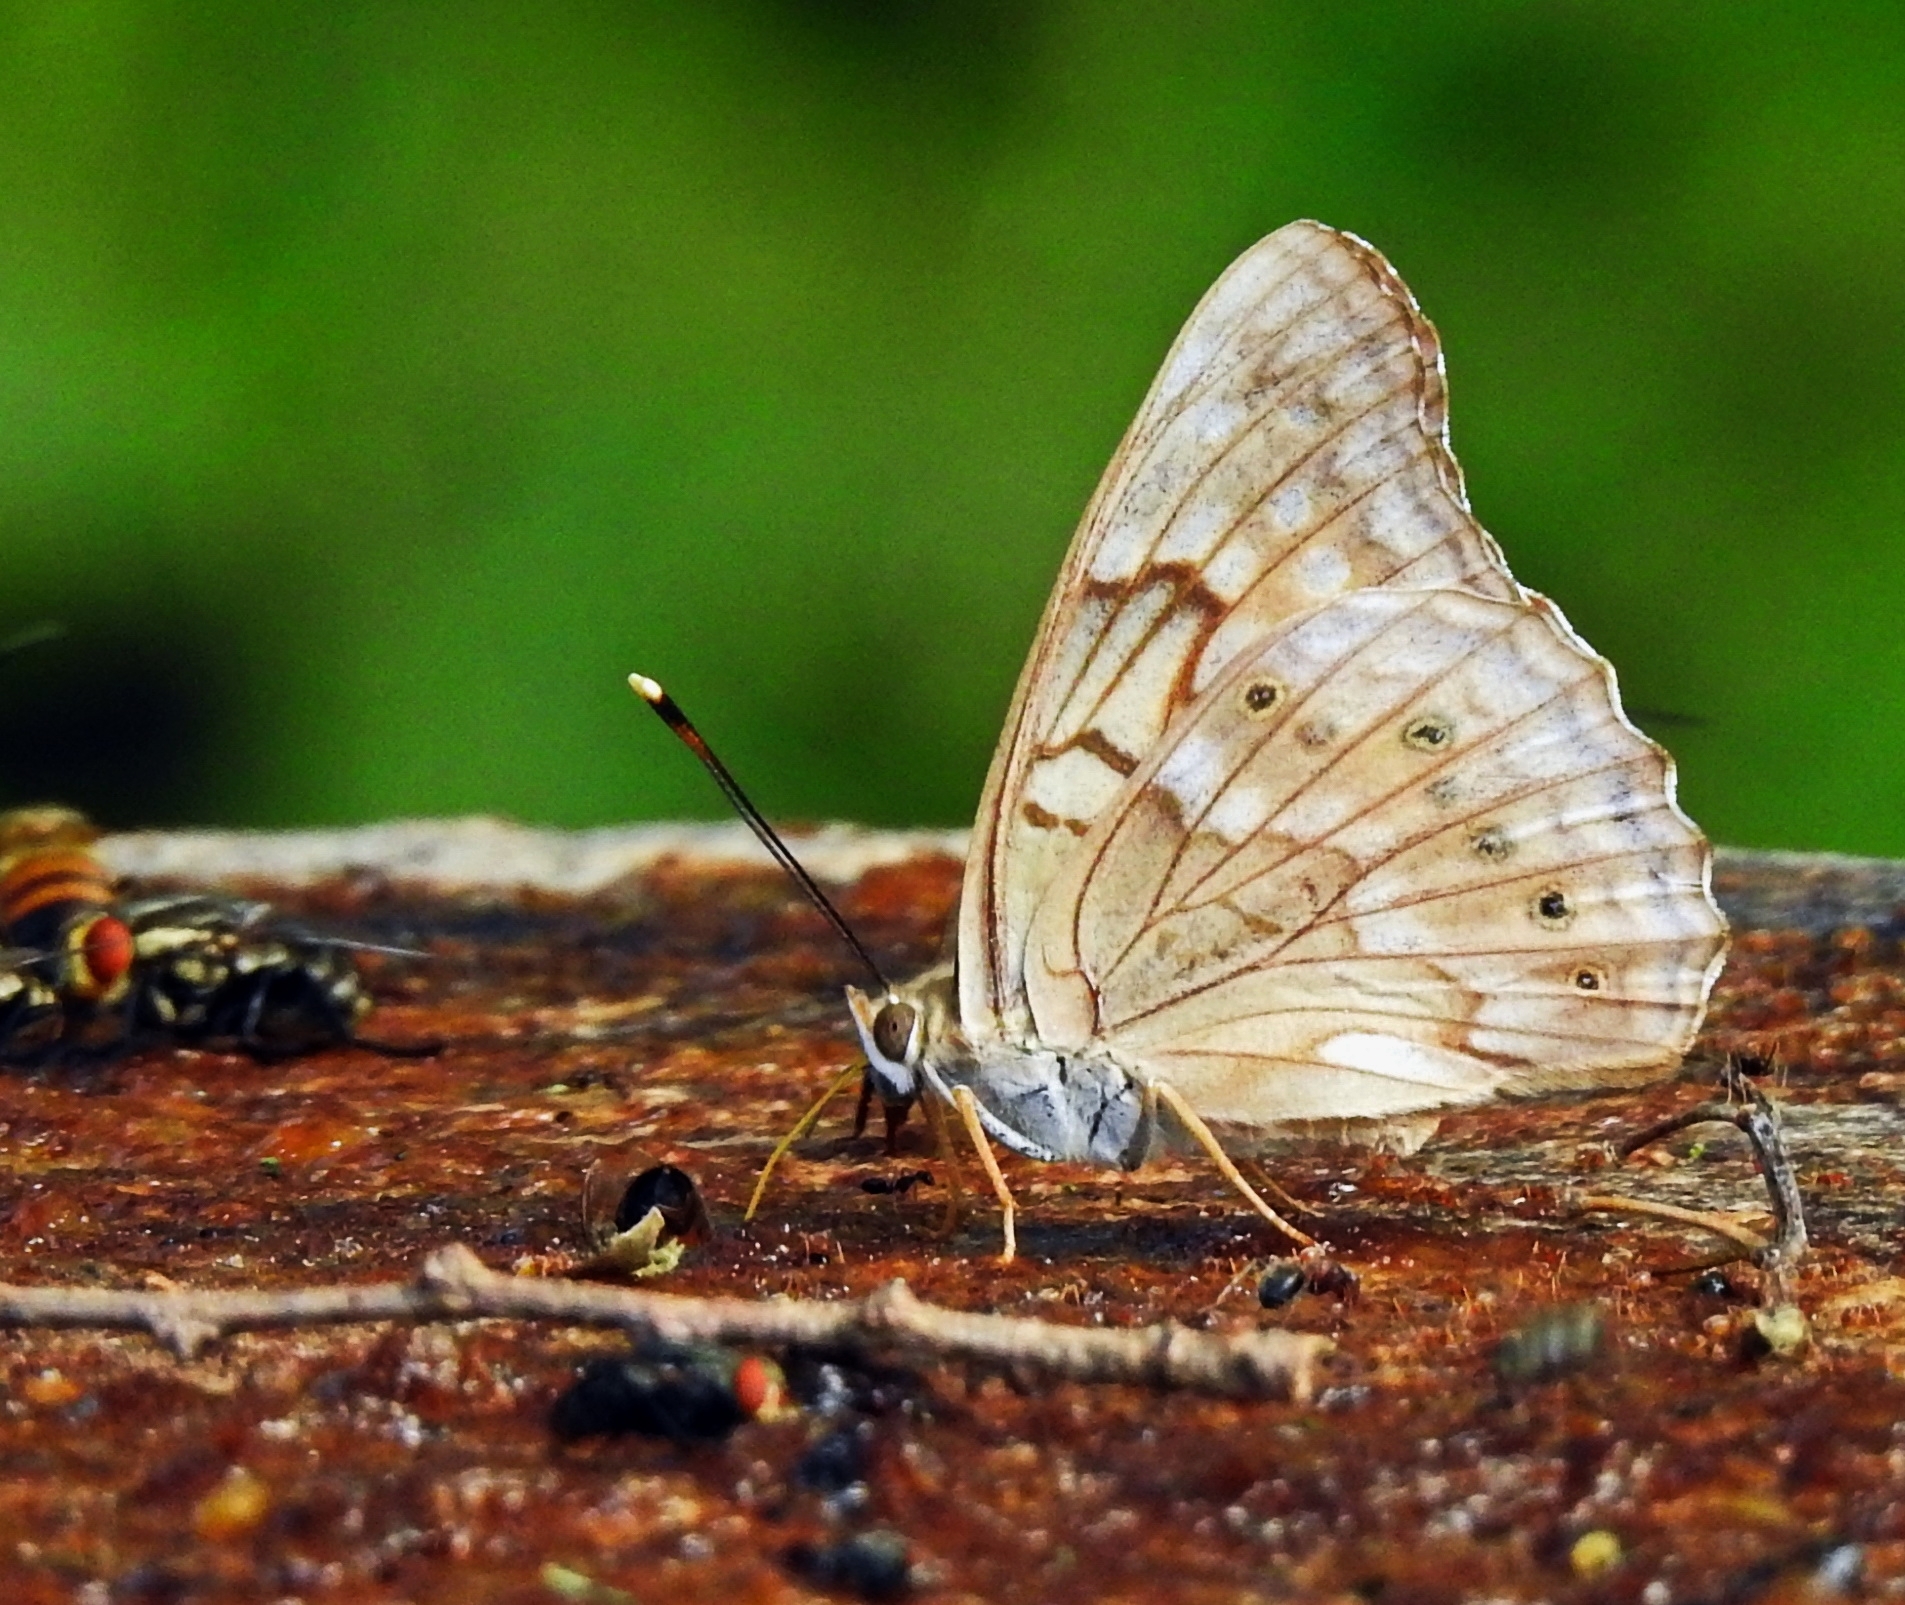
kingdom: Animalia
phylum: Arthropoda
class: Insecta
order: Lepidoptera
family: Nymphalidae
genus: Asterocampa
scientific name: Asterocampa clyton
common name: Tawny emperor
